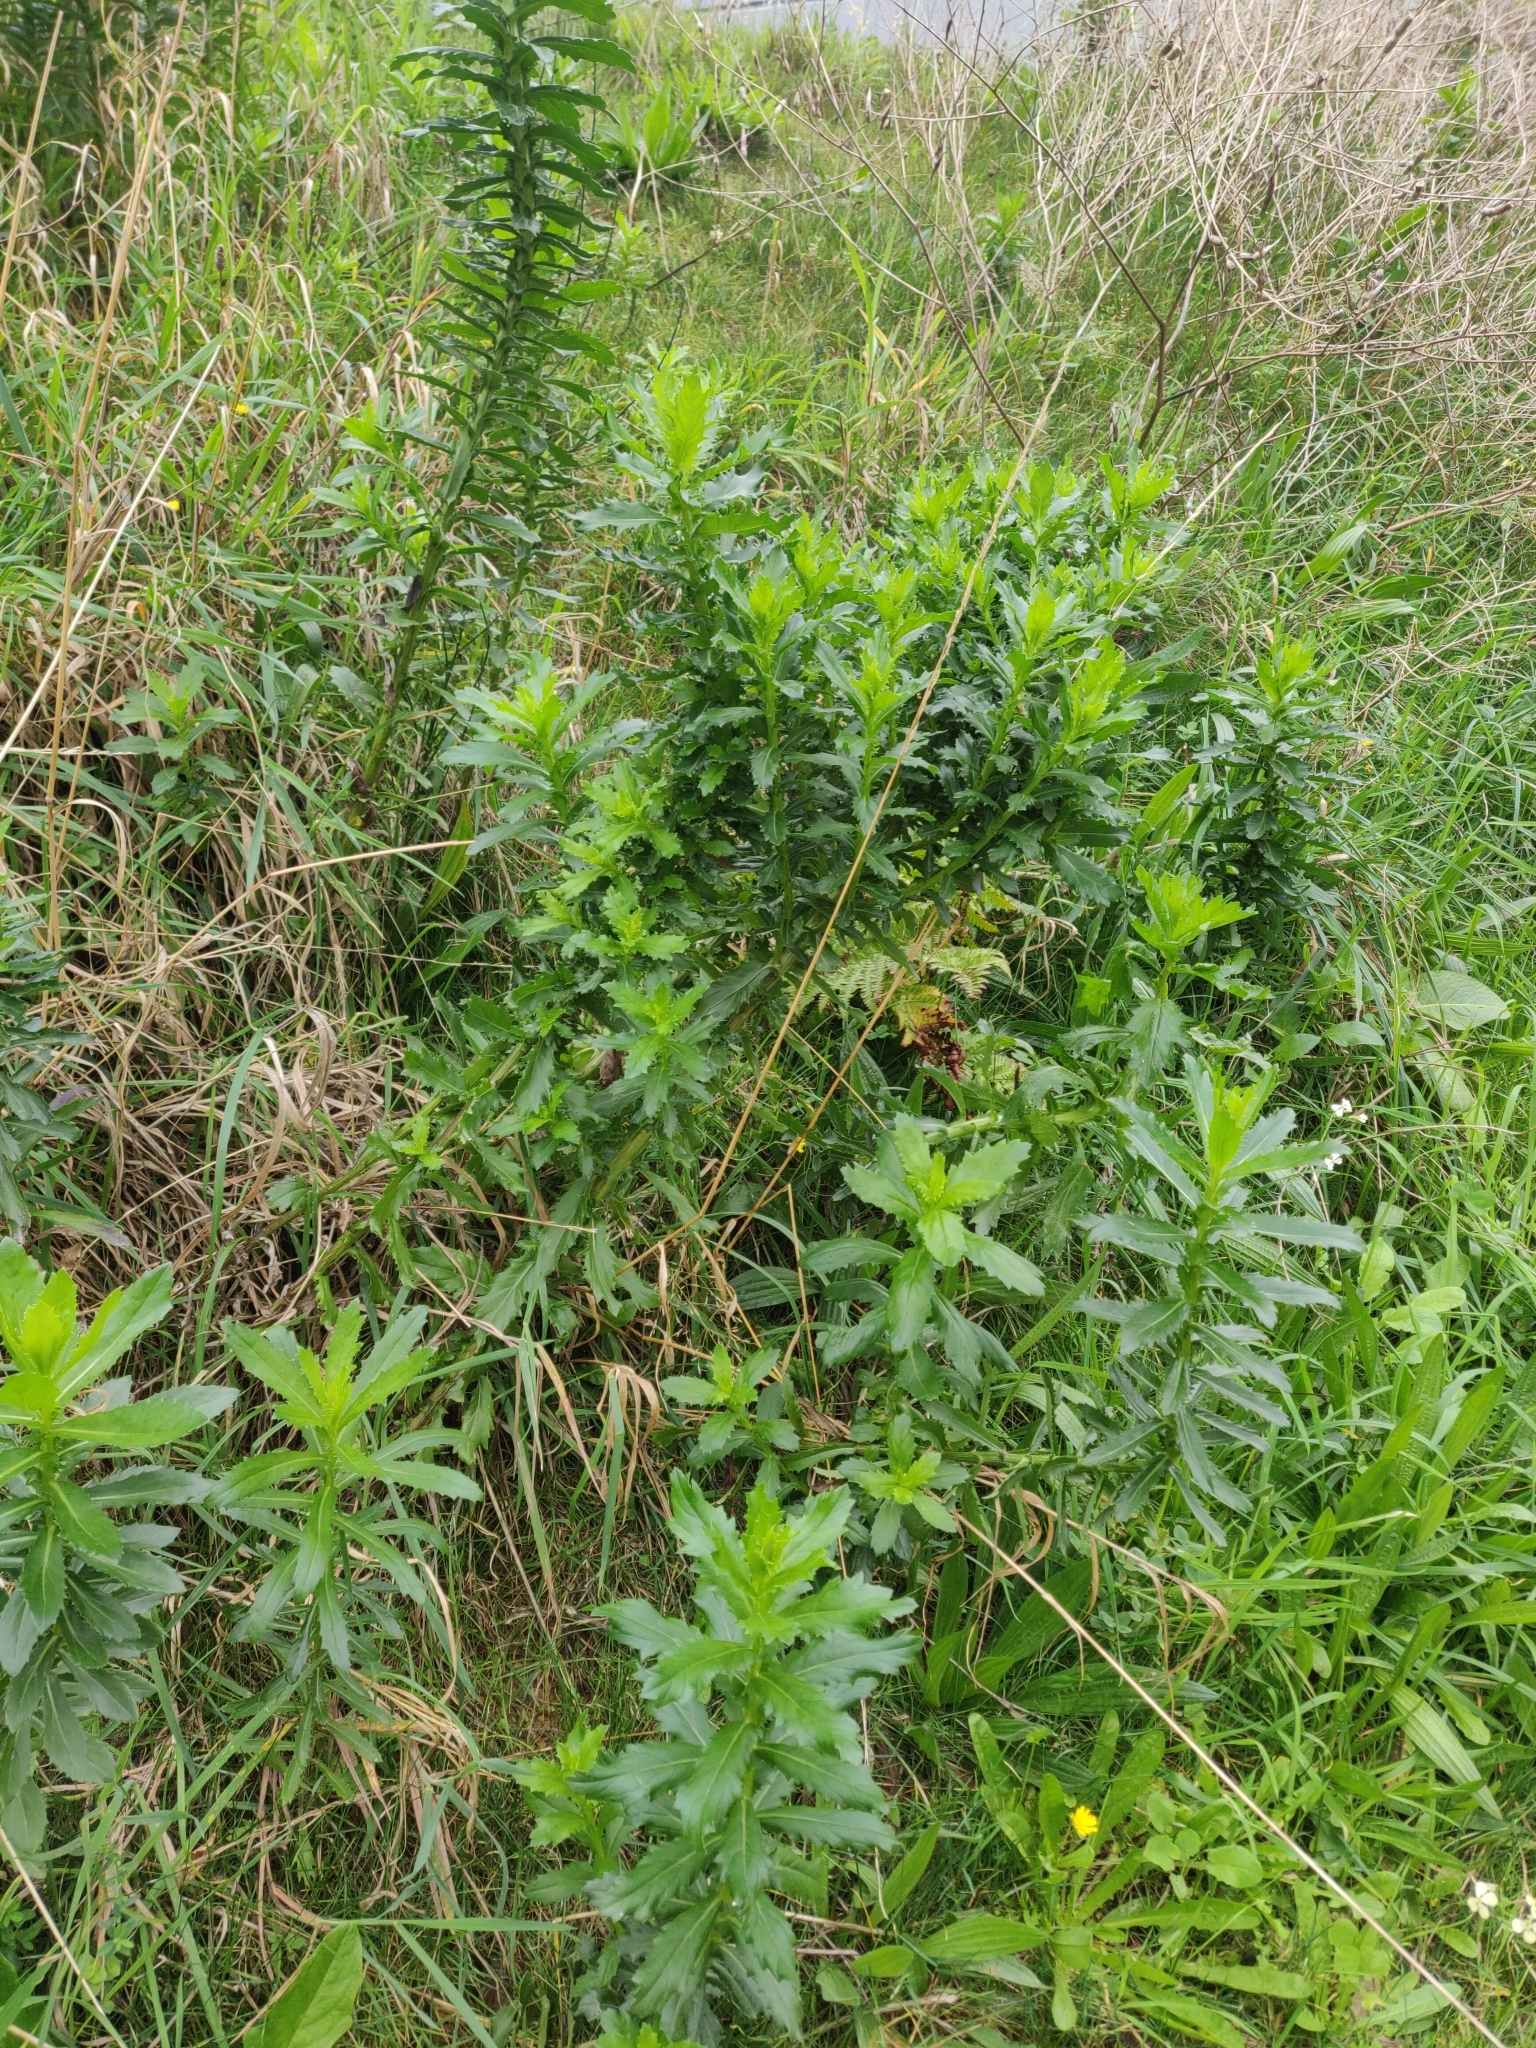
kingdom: Plantae
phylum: Tracheophyta
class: Magnoliopsida
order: Asterales
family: Asteraceae
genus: Senecio
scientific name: Senecio glastifolius
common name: Woad-leaved ragwort
